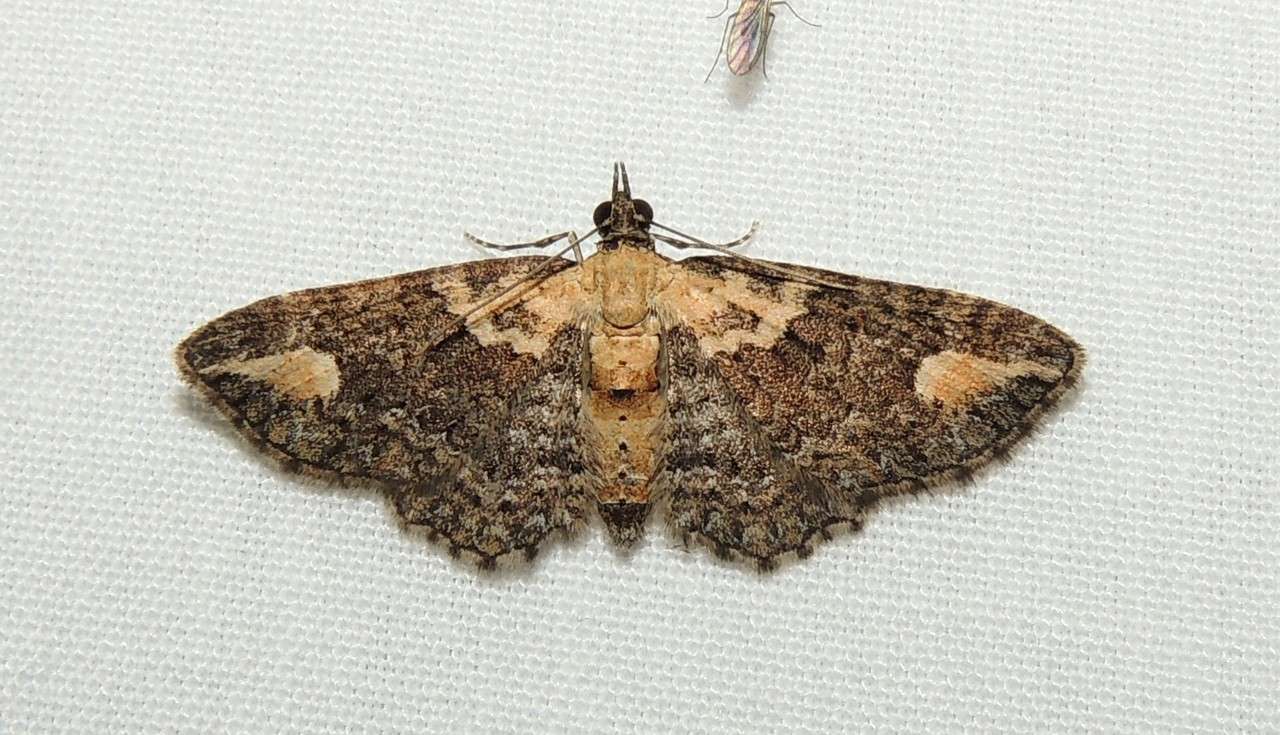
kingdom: Animalia
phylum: Arthropoda
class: Insecta
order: Lepidoptera
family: Geometridae
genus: Pasiphilodes
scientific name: Pasiphilodes testulata
